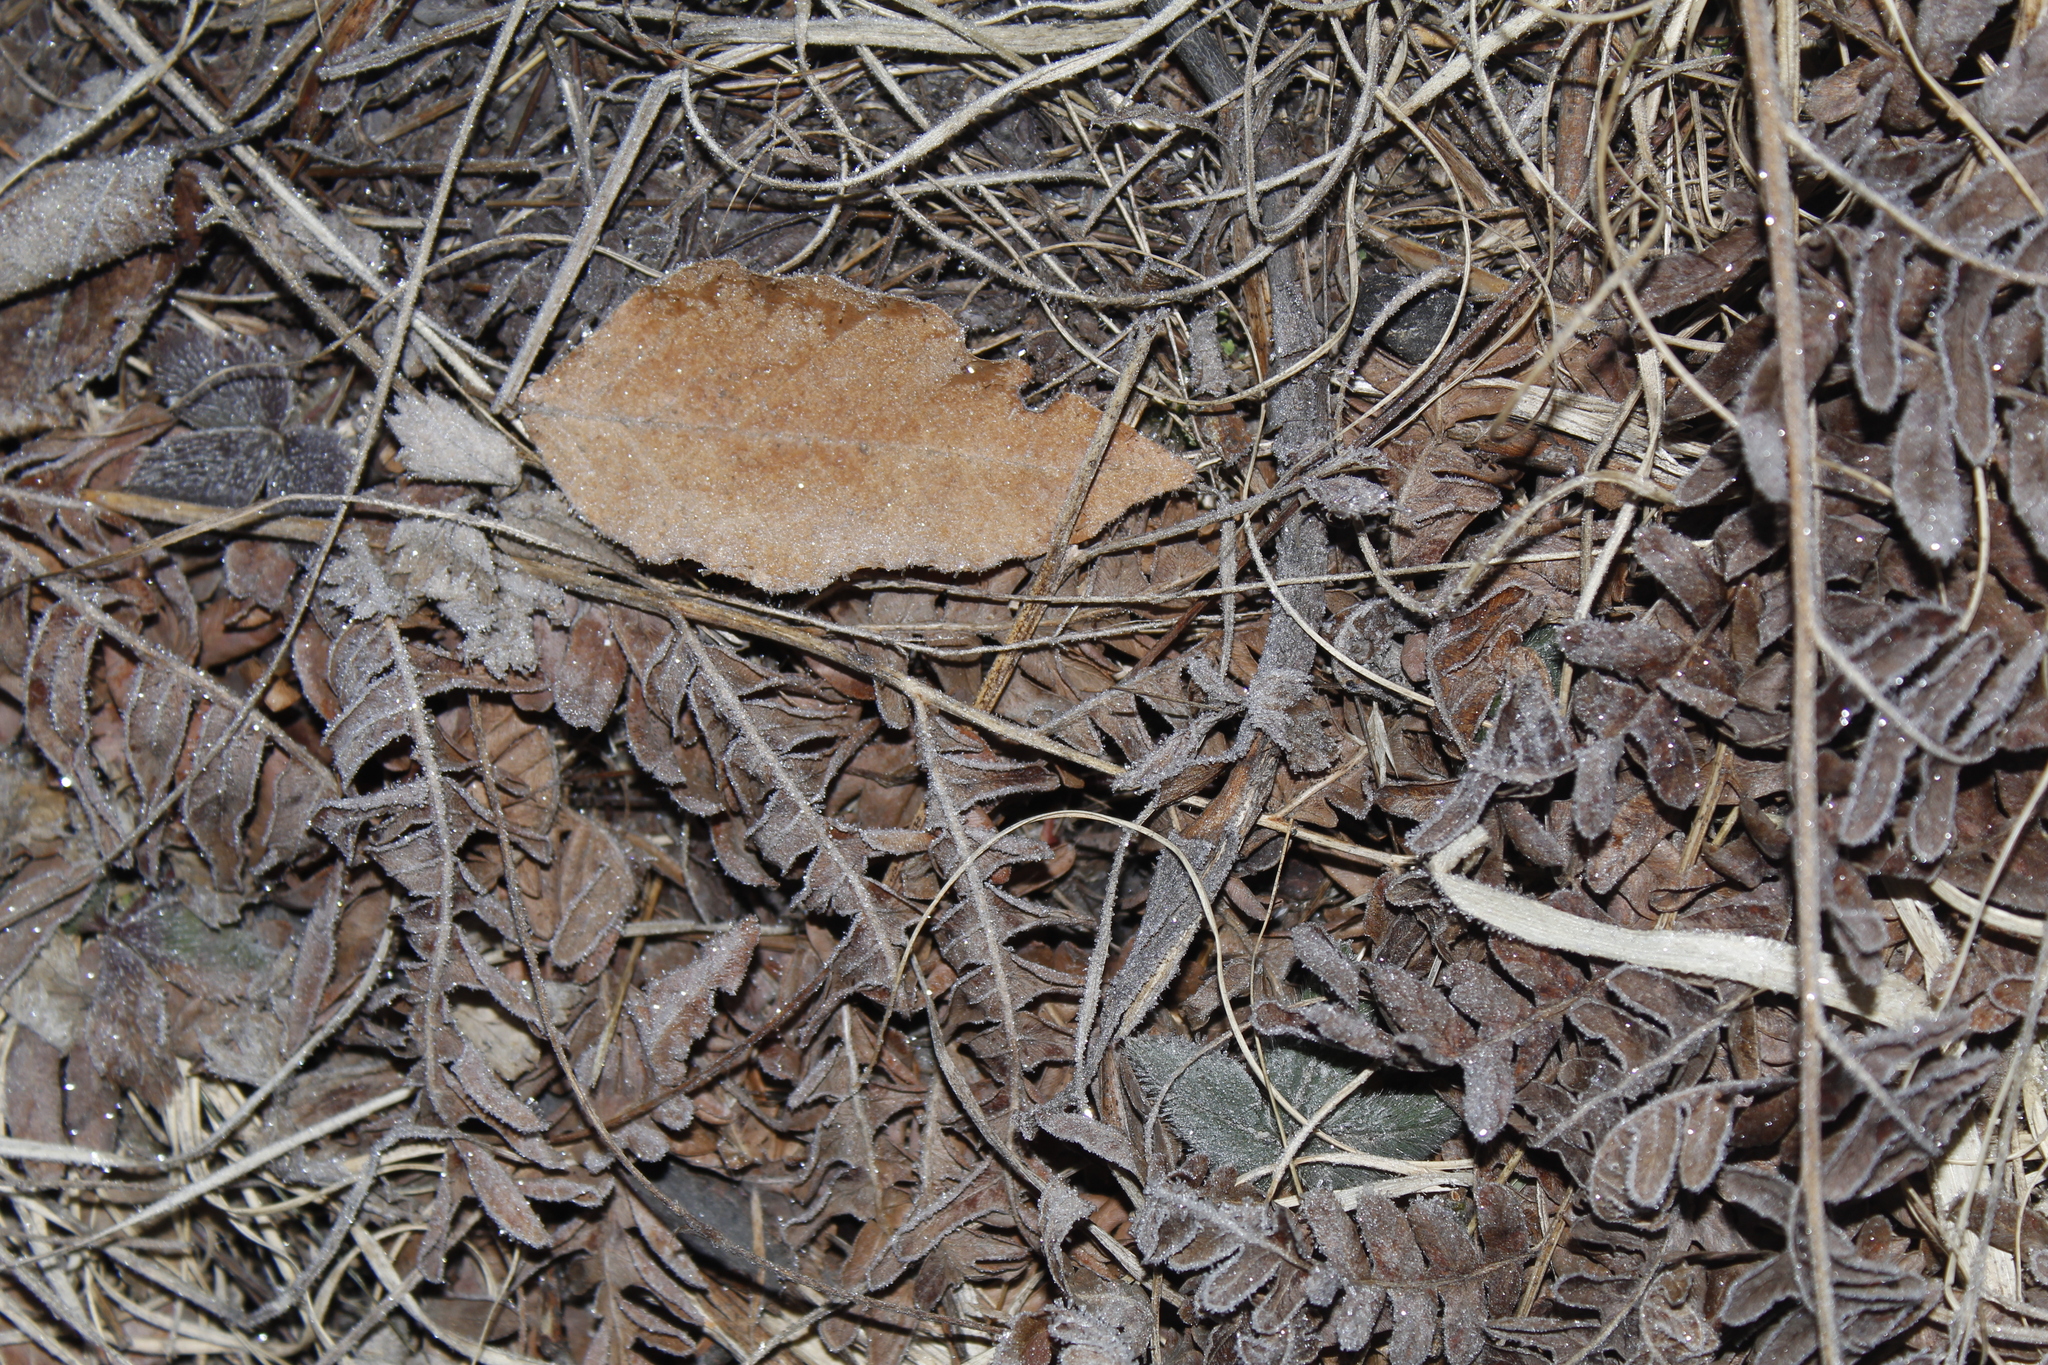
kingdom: Plantae
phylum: Tracheophyta
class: Polypodiopsida
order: Polypodiales
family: Dennstaedtiaceae
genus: Pteridium
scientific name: Pteridium aquilinum
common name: Bracken
